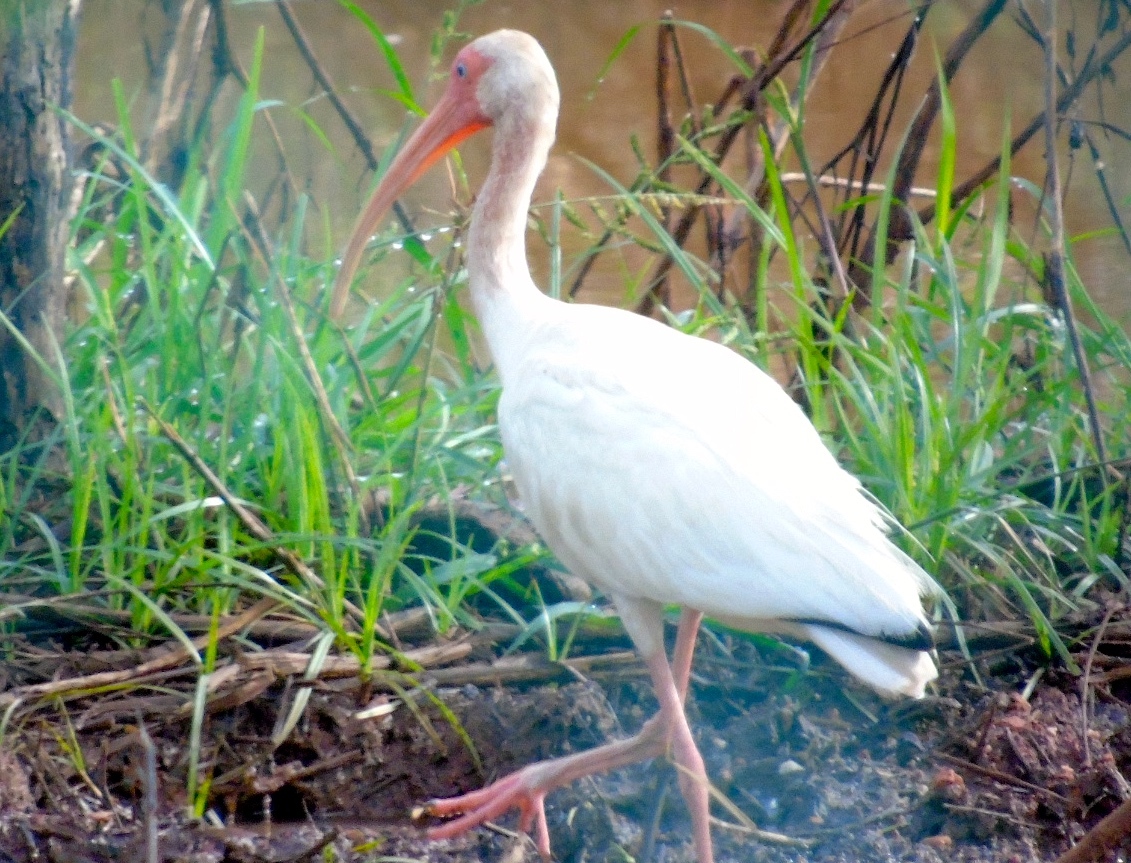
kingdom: Animalia
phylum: Chordata
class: Aves
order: Pelecaniformes
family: Threskiornithidae
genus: Eudocimus
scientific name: Eudocimus albus
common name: White ibis
